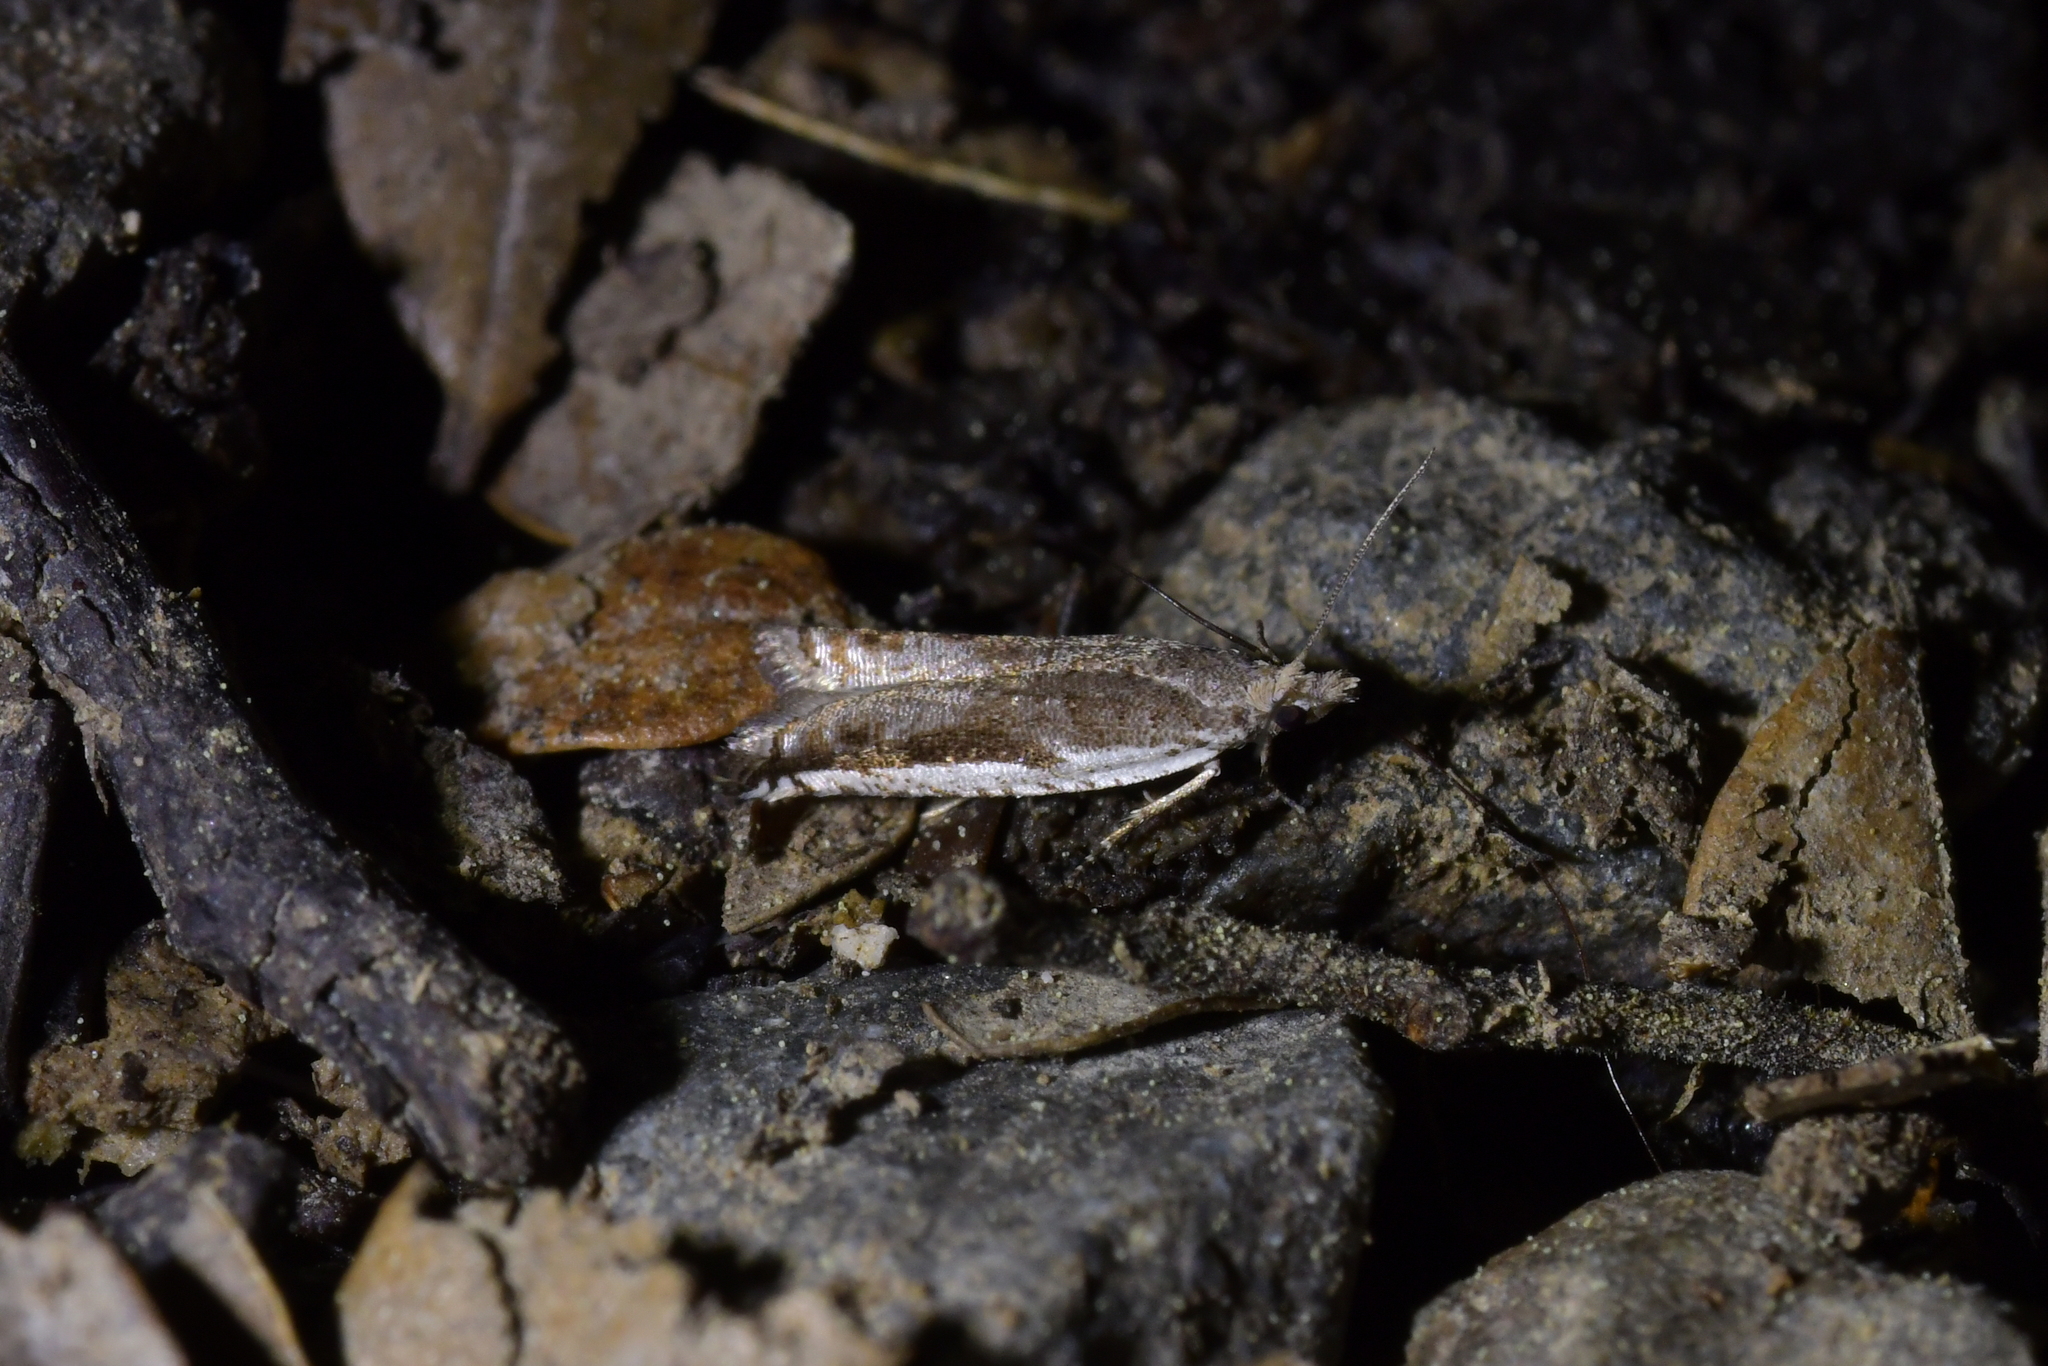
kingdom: Animalia
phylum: Arthropoda
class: Insecta
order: Lepidoptera
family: Tortricidae
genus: Holocola
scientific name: Holocola
